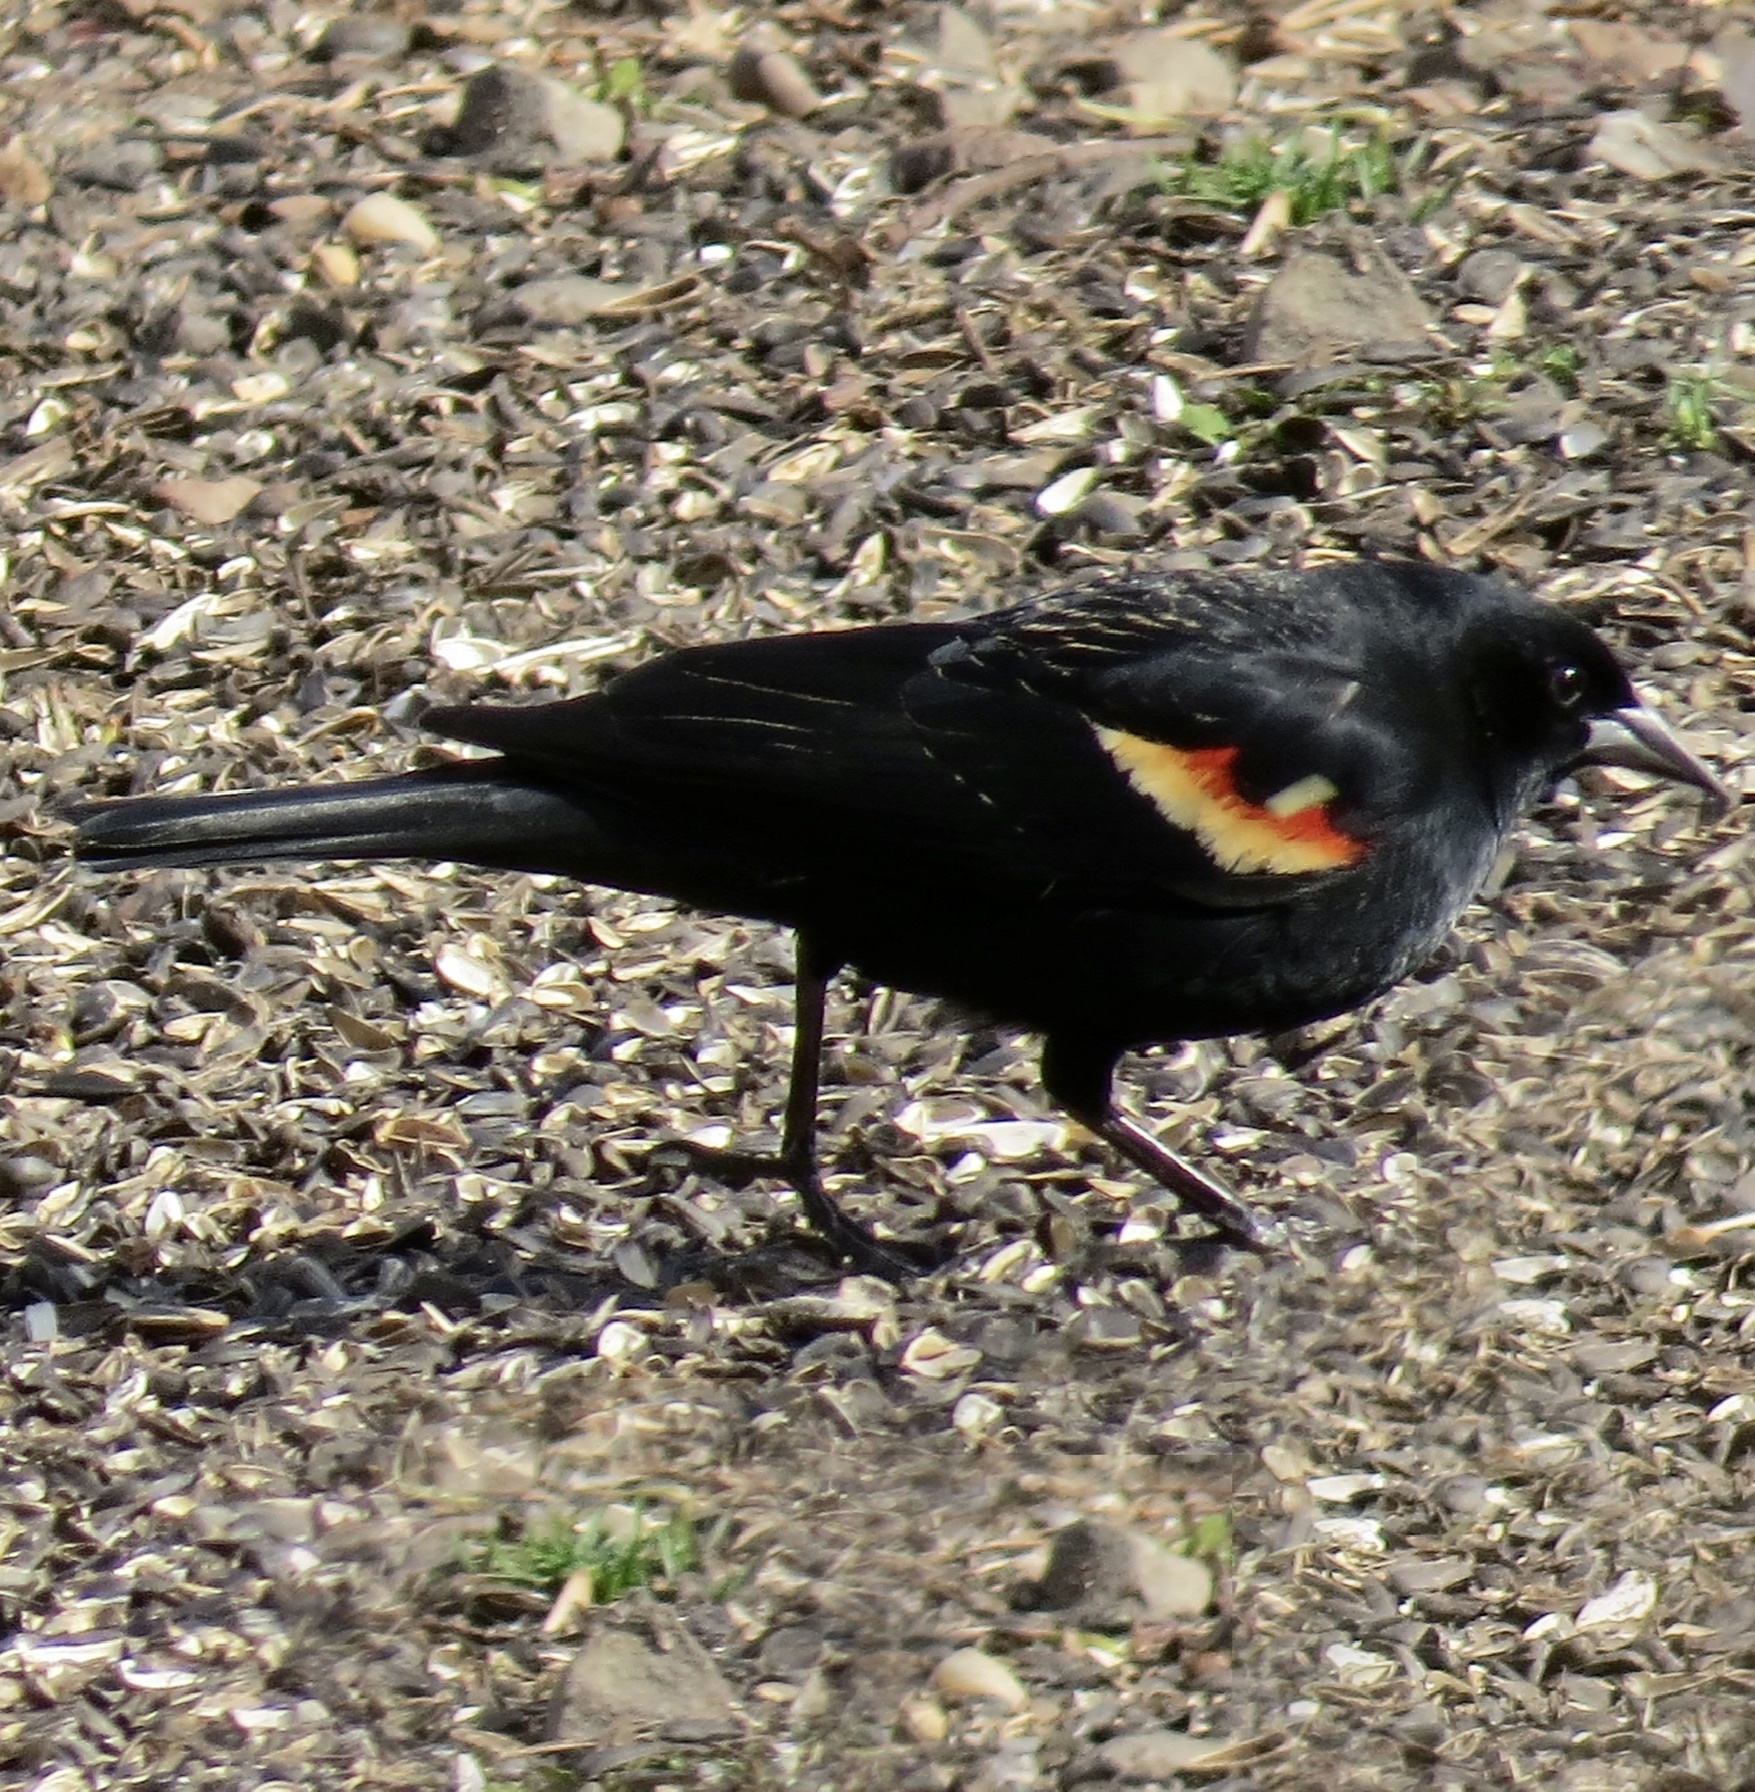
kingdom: Animalia
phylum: Chordata
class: Aves
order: Passeriformes
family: Icteridae
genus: Agelaius
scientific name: Agelaius phoeniceus
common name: Red-winged blackbird
